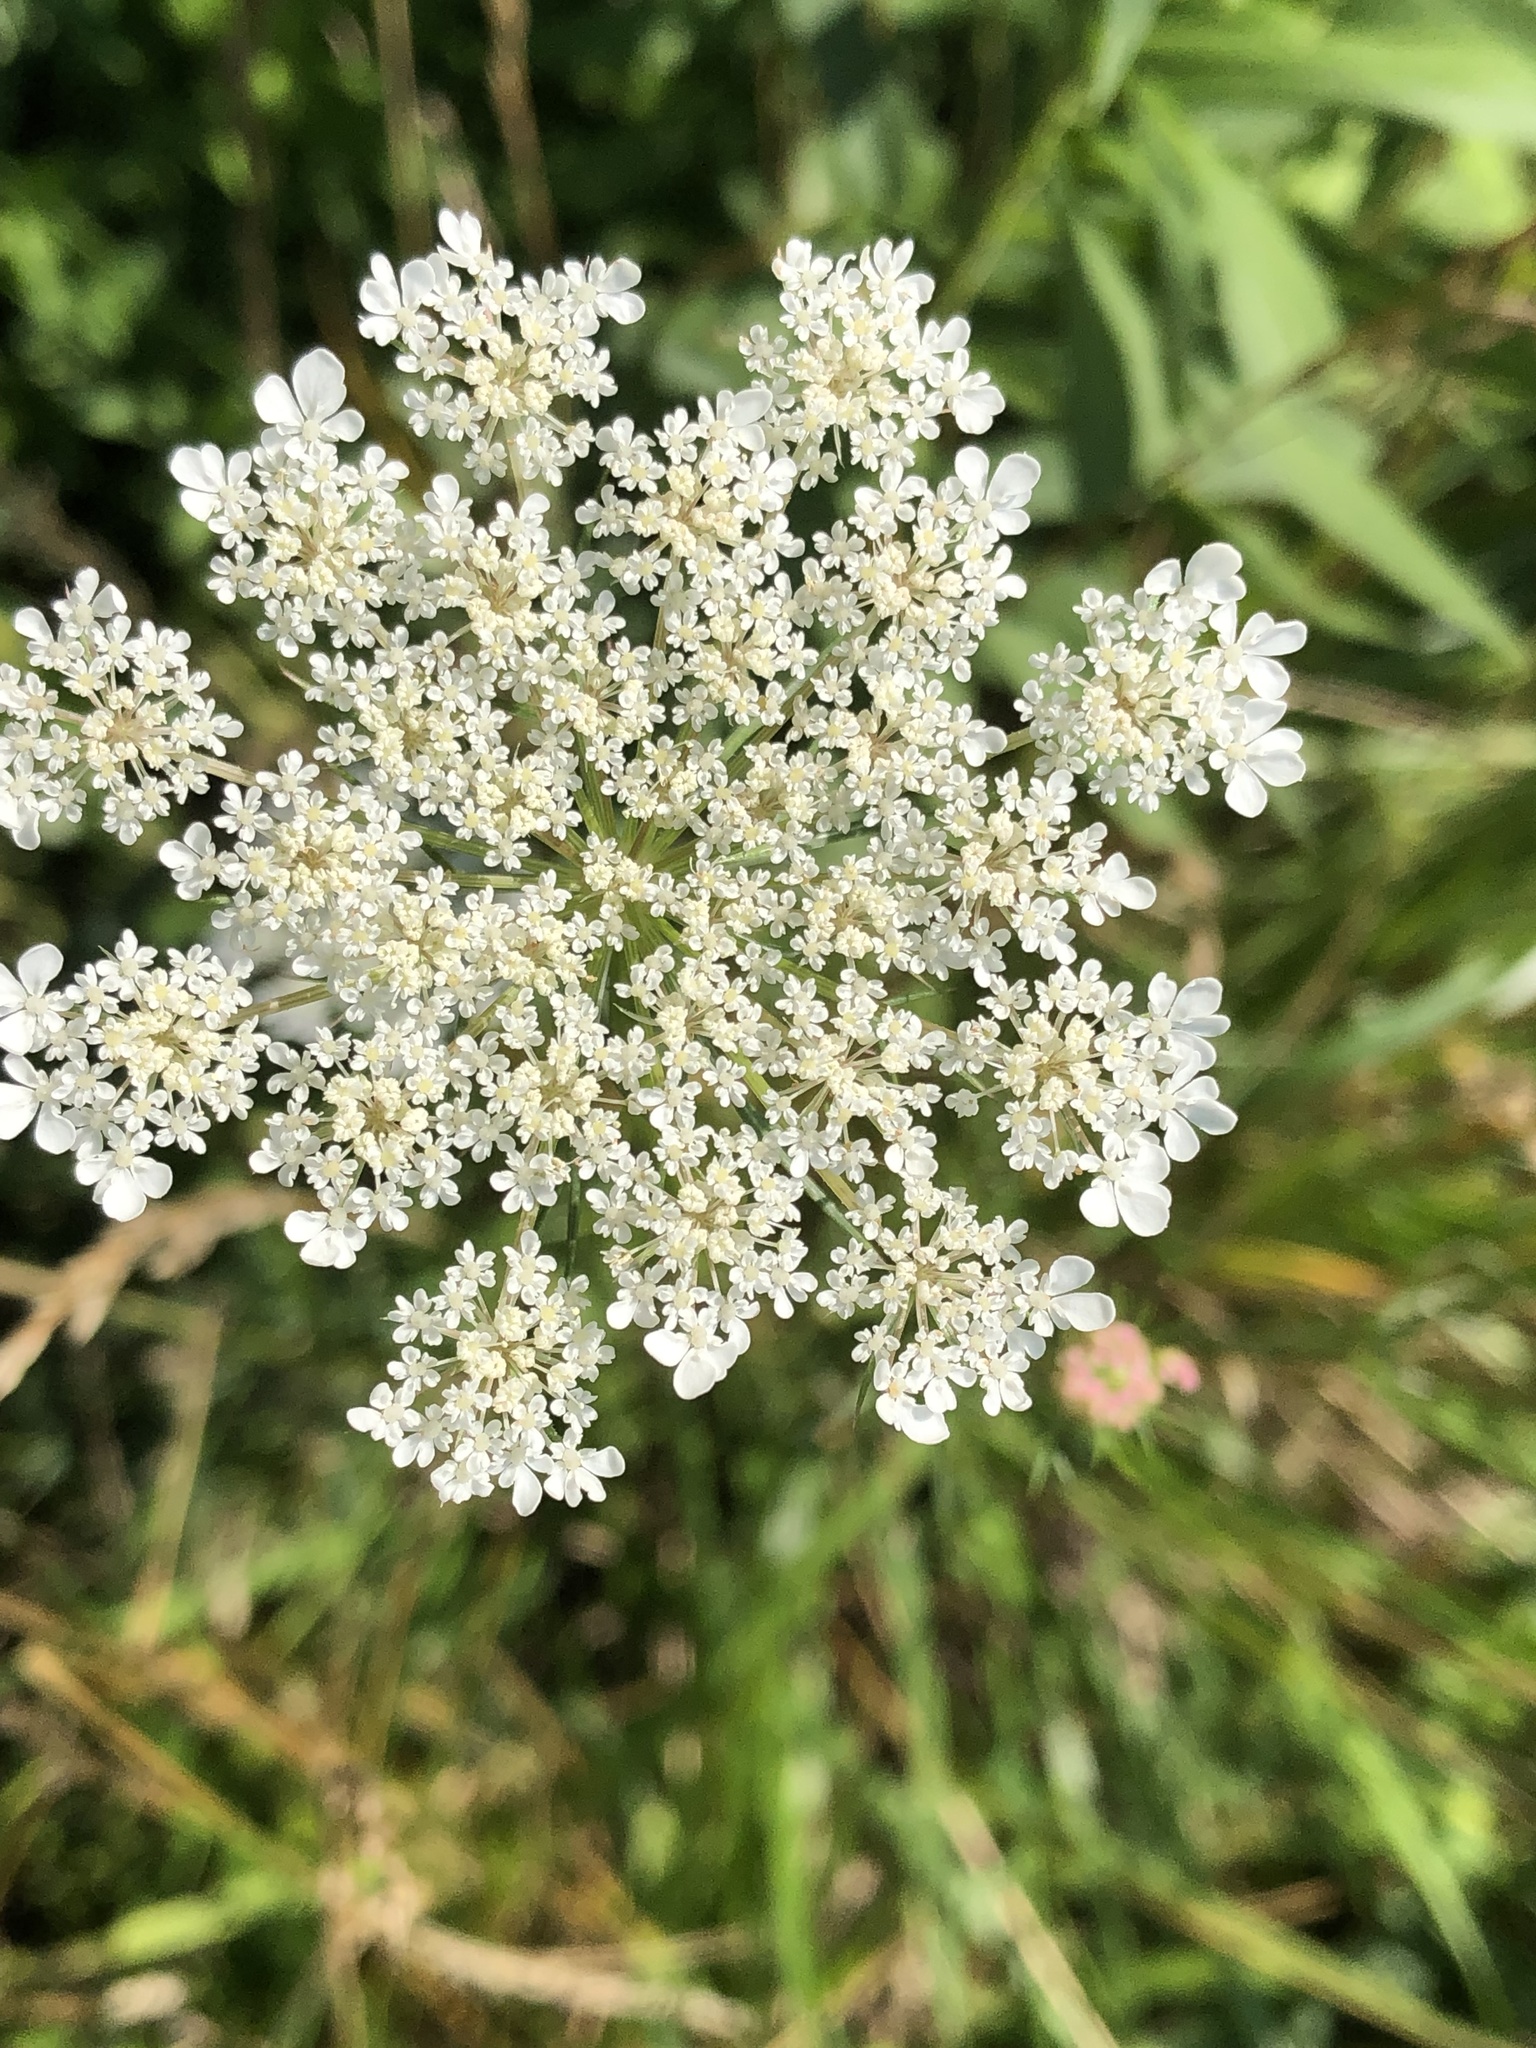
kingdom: Plantae
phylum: Tracheophyta
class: Magnoliopsida
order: Apiales
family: Apiaceae
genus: Daucus
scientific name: Daucus carota
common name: Wild carrot
